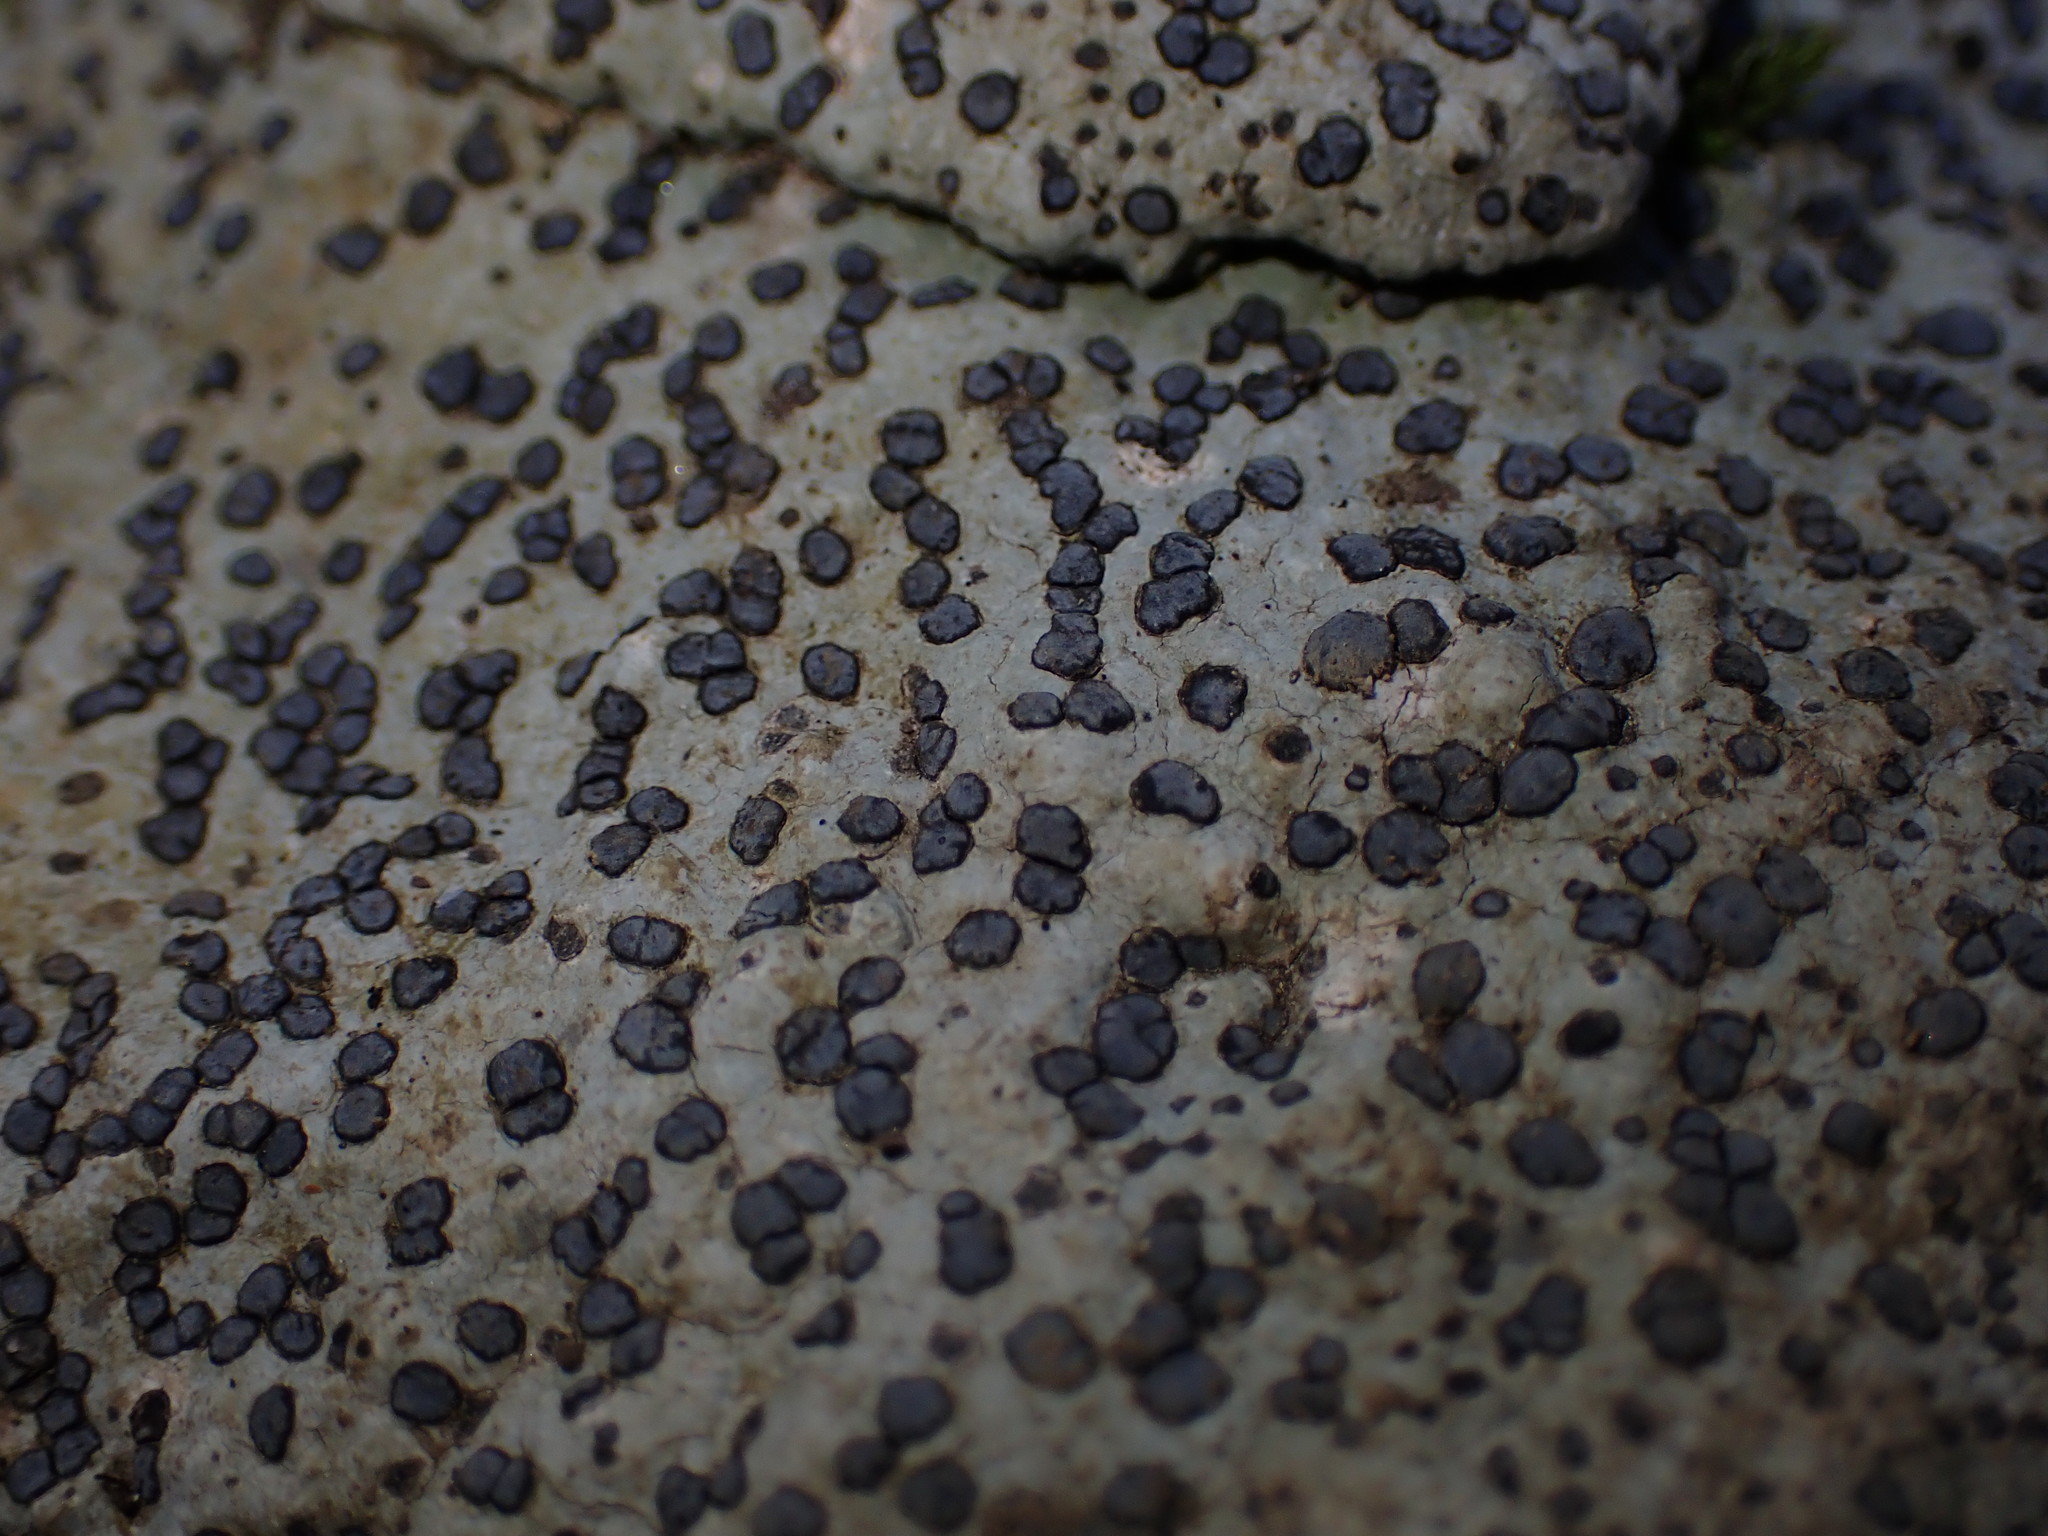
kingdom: Fungi
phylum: Ascomycota
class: Lecanoromycetes
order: Lecideales
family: Lecideaceae
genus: Porpidia
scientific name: Porpidia albocaerulescens
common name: Smokey-eyed boulder lichen
